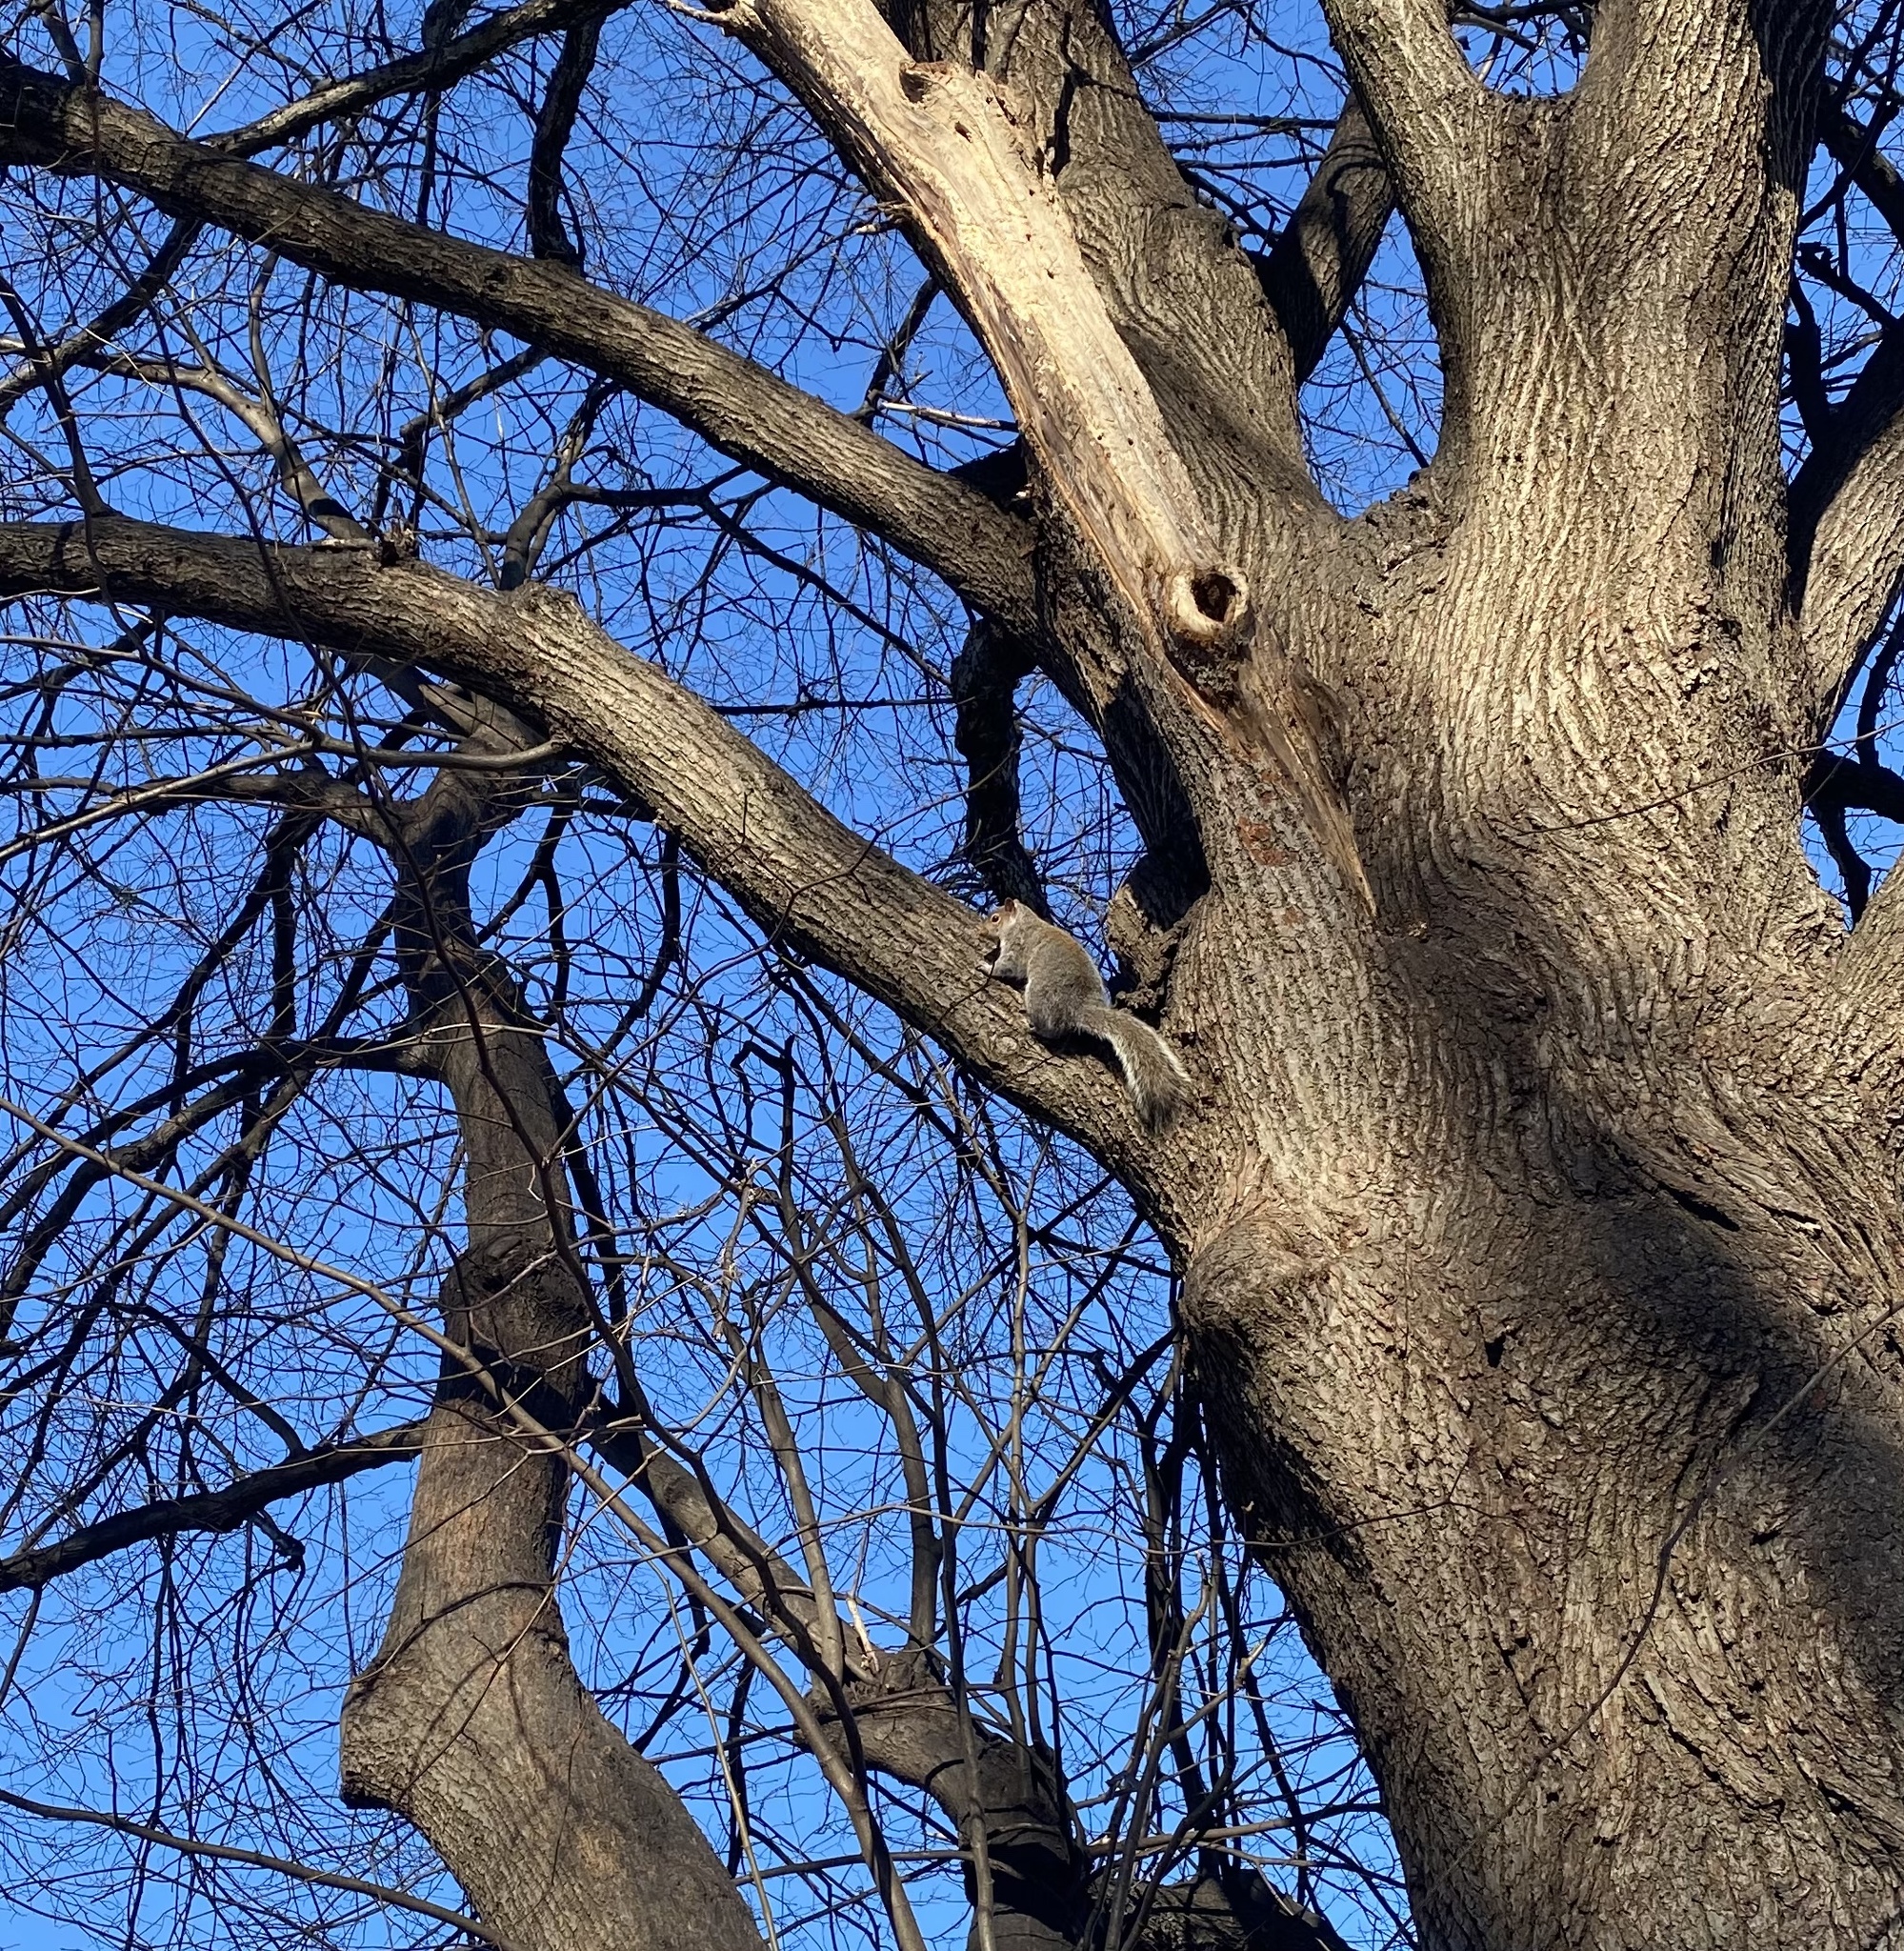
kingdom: Animalia
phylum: Chordata
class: Mammalia
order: Rodentia
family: Sciuridae
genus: Sciurus
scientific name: Sciurus carolinensis
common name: Eastern gray squirrel
